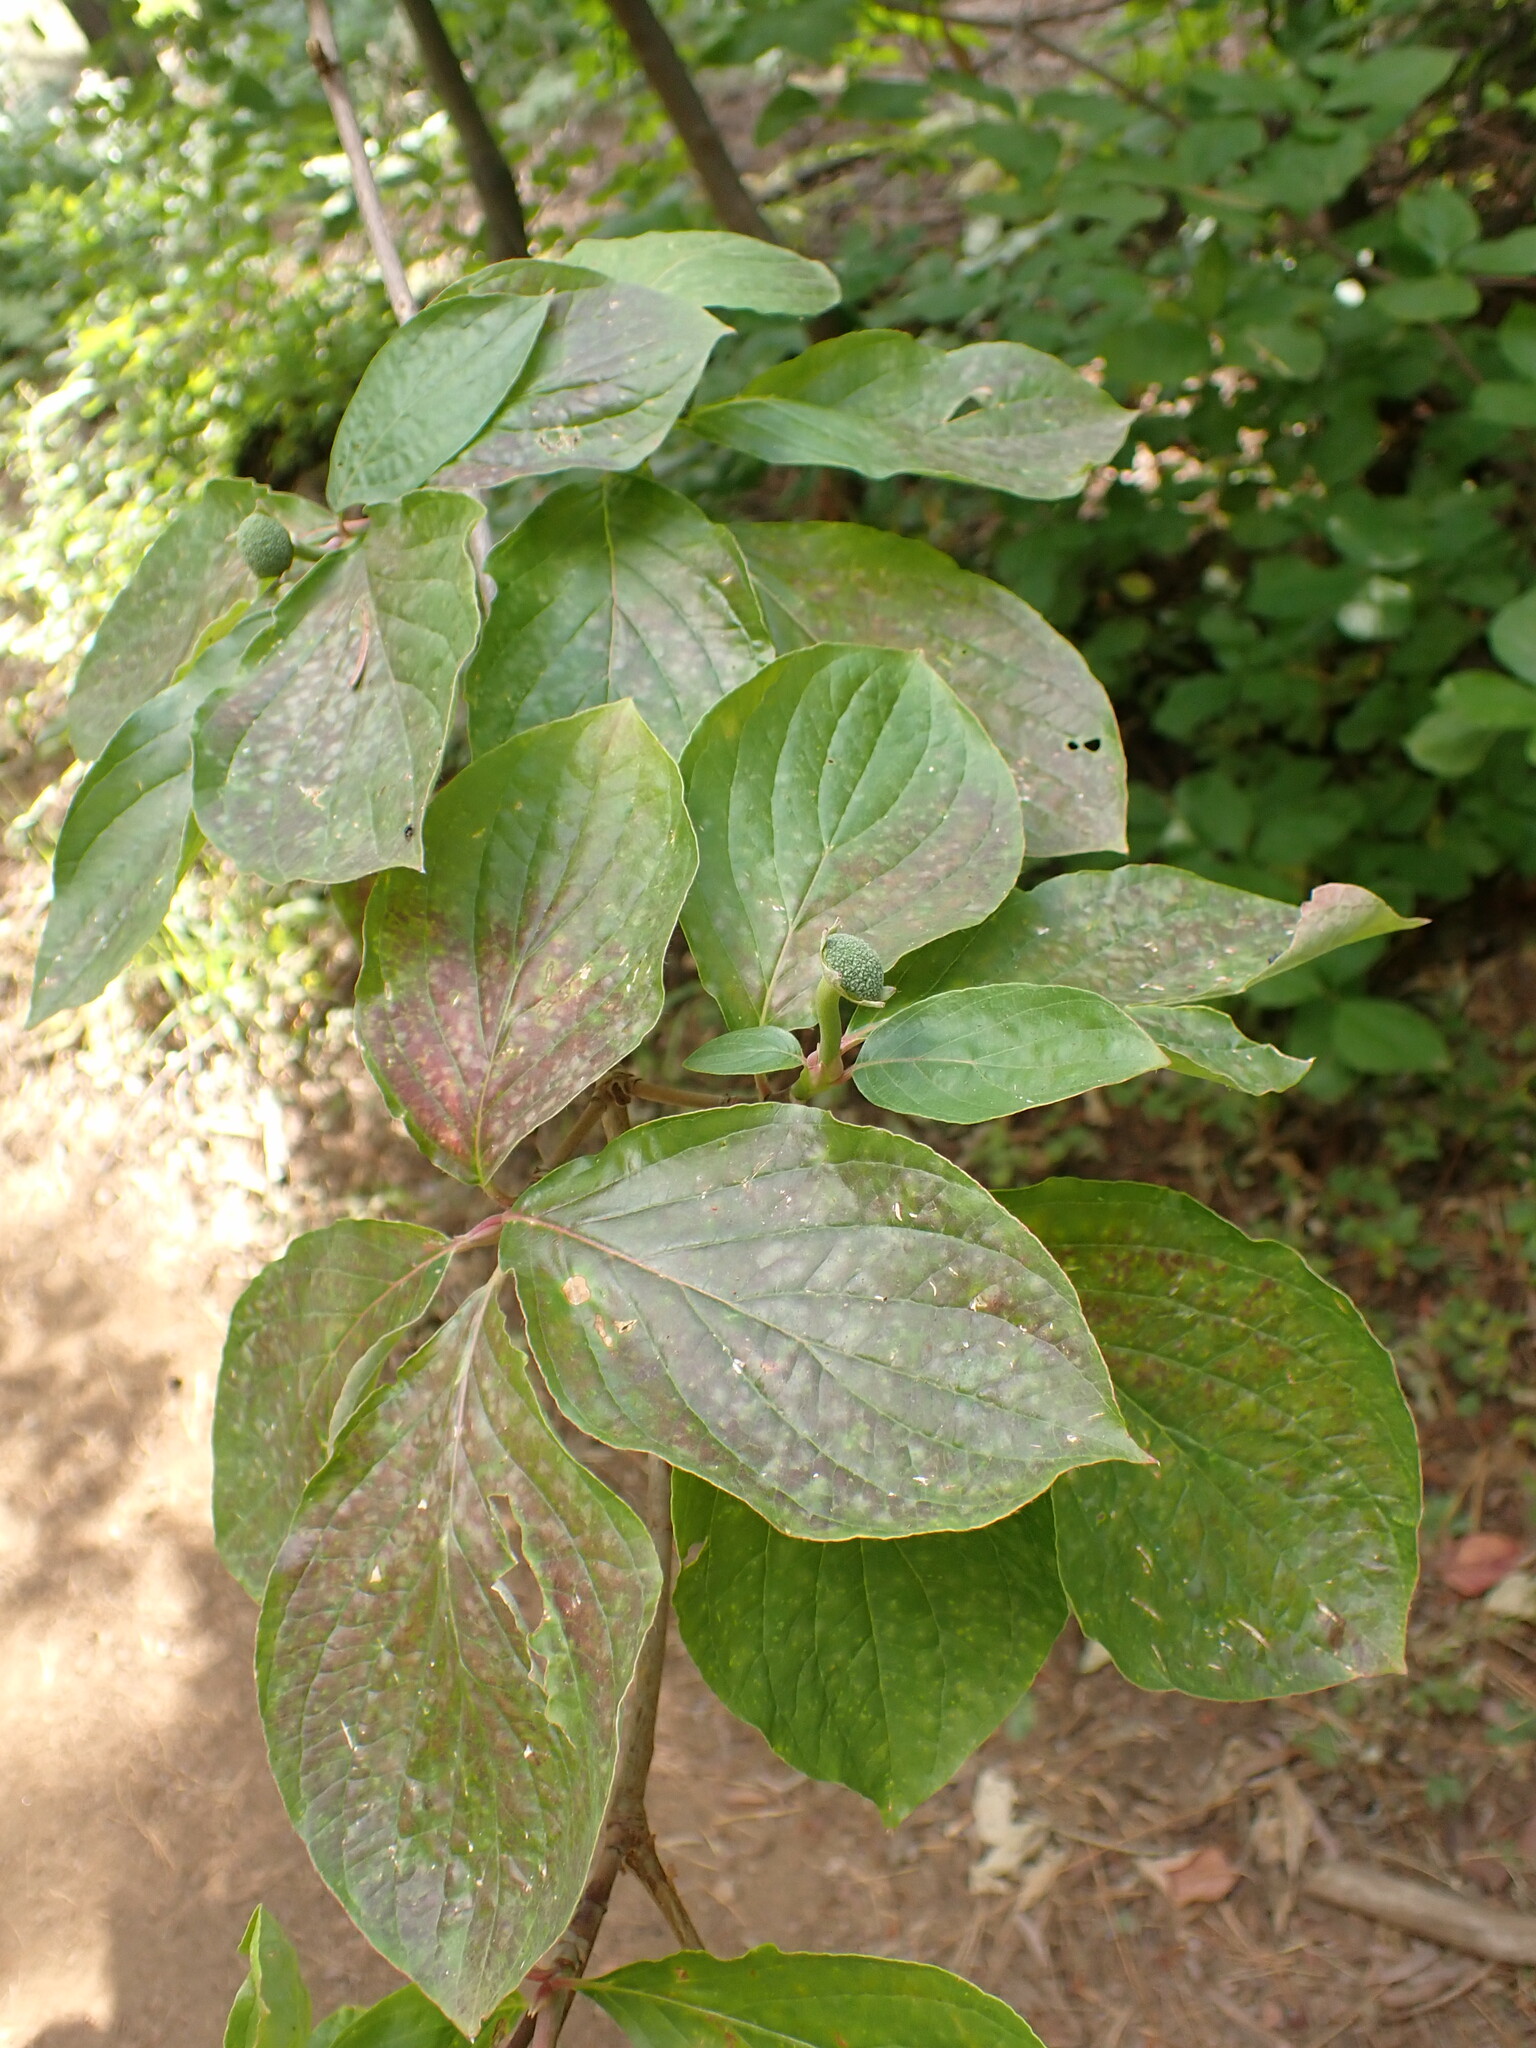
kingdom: Plantae
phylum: Tracheophyta
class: Magnoliopsida
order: Cornales
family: Cornaceae
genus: Cornus
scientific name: Cornus nuttallii
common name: Pacific dogwood
